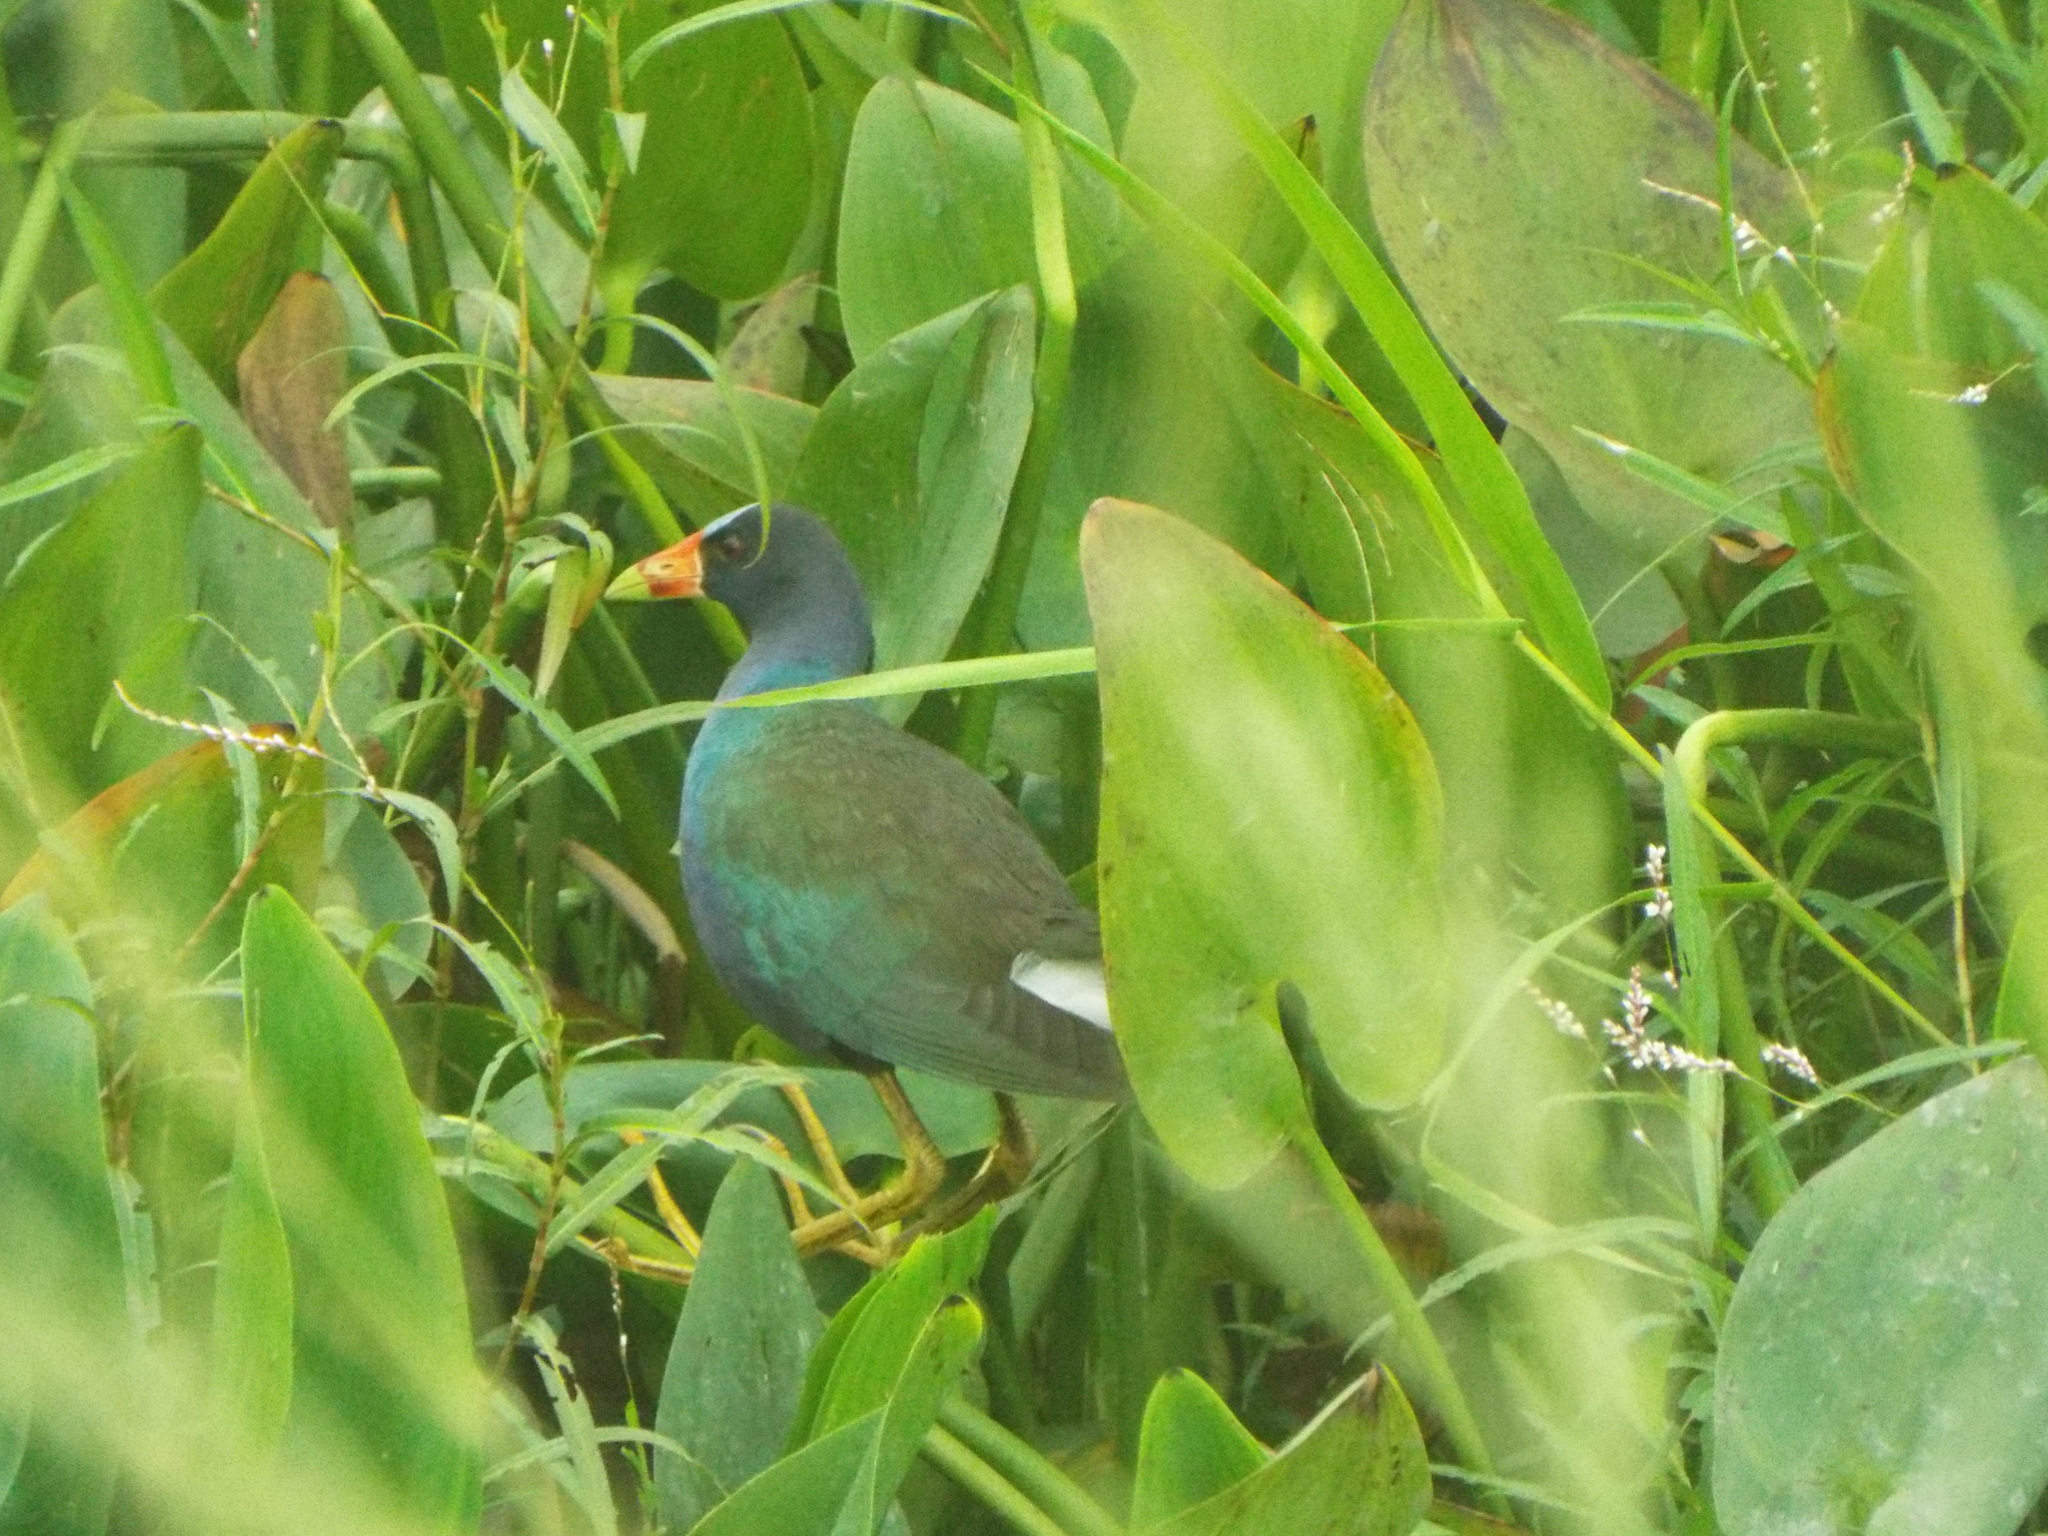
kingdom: Animalia
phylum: Chordata
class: Aves
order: Gruiformes
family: Rallidae
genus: Porphyrio
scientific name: Porphyrio martinica
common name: Purple gallinule
